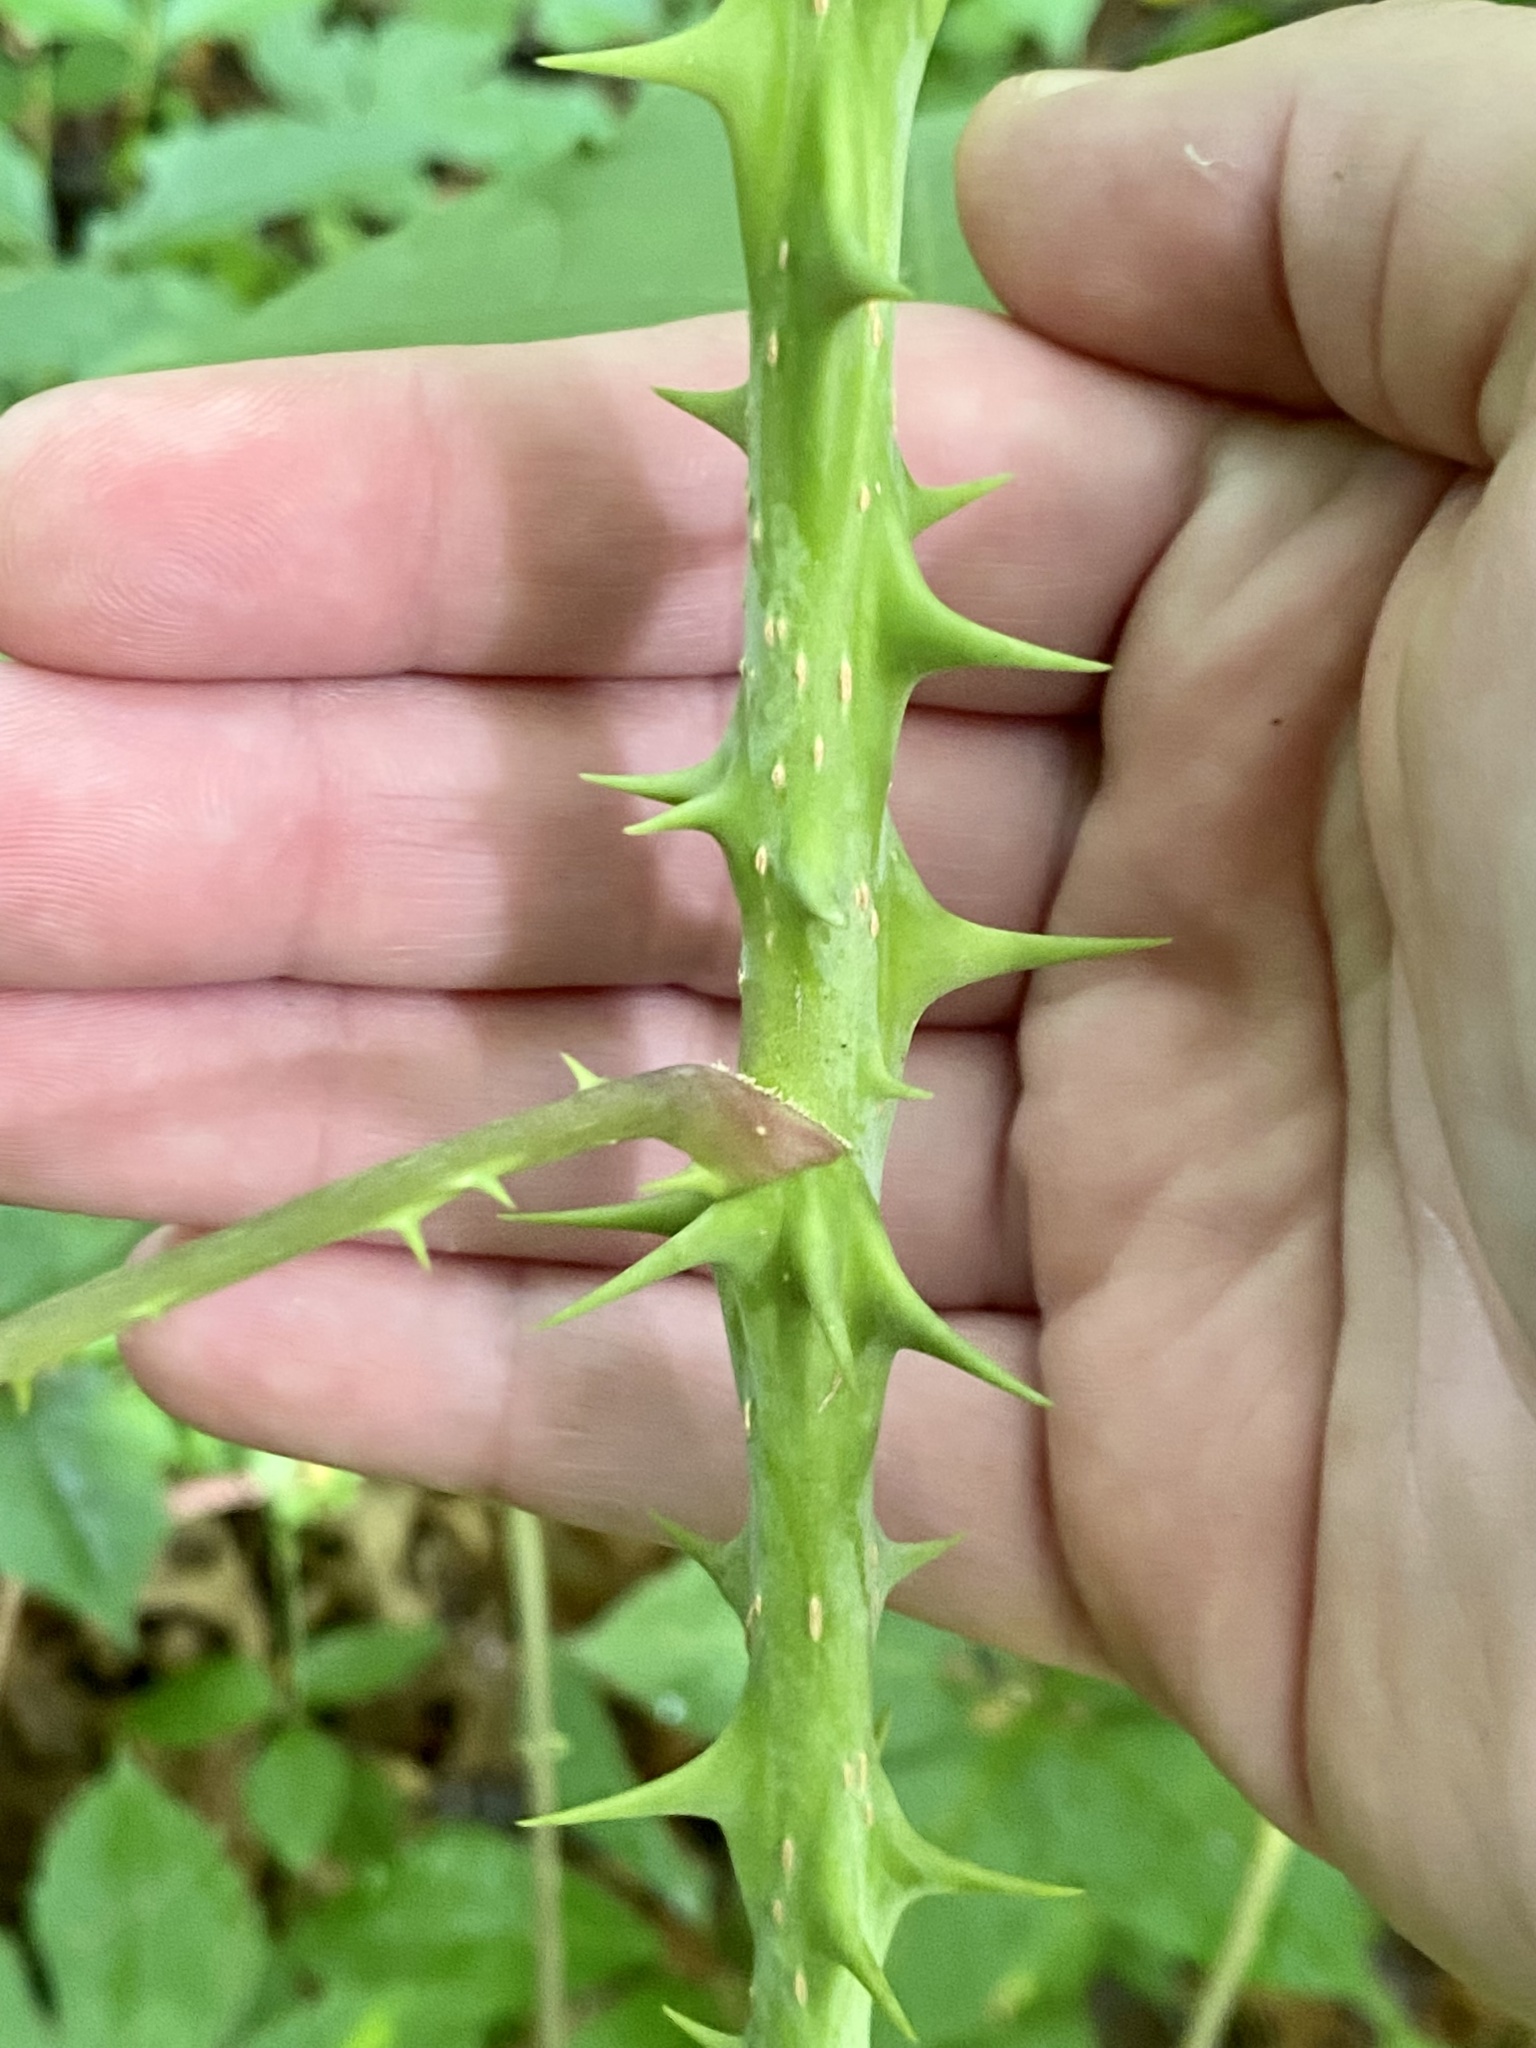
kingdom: Plantae
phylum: Tracheophyta
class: Magnoliopsida
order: Apiales
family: Araliaceae
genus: Kalopanax
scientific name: Kalopanax septemlobus
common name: Castor aralia
